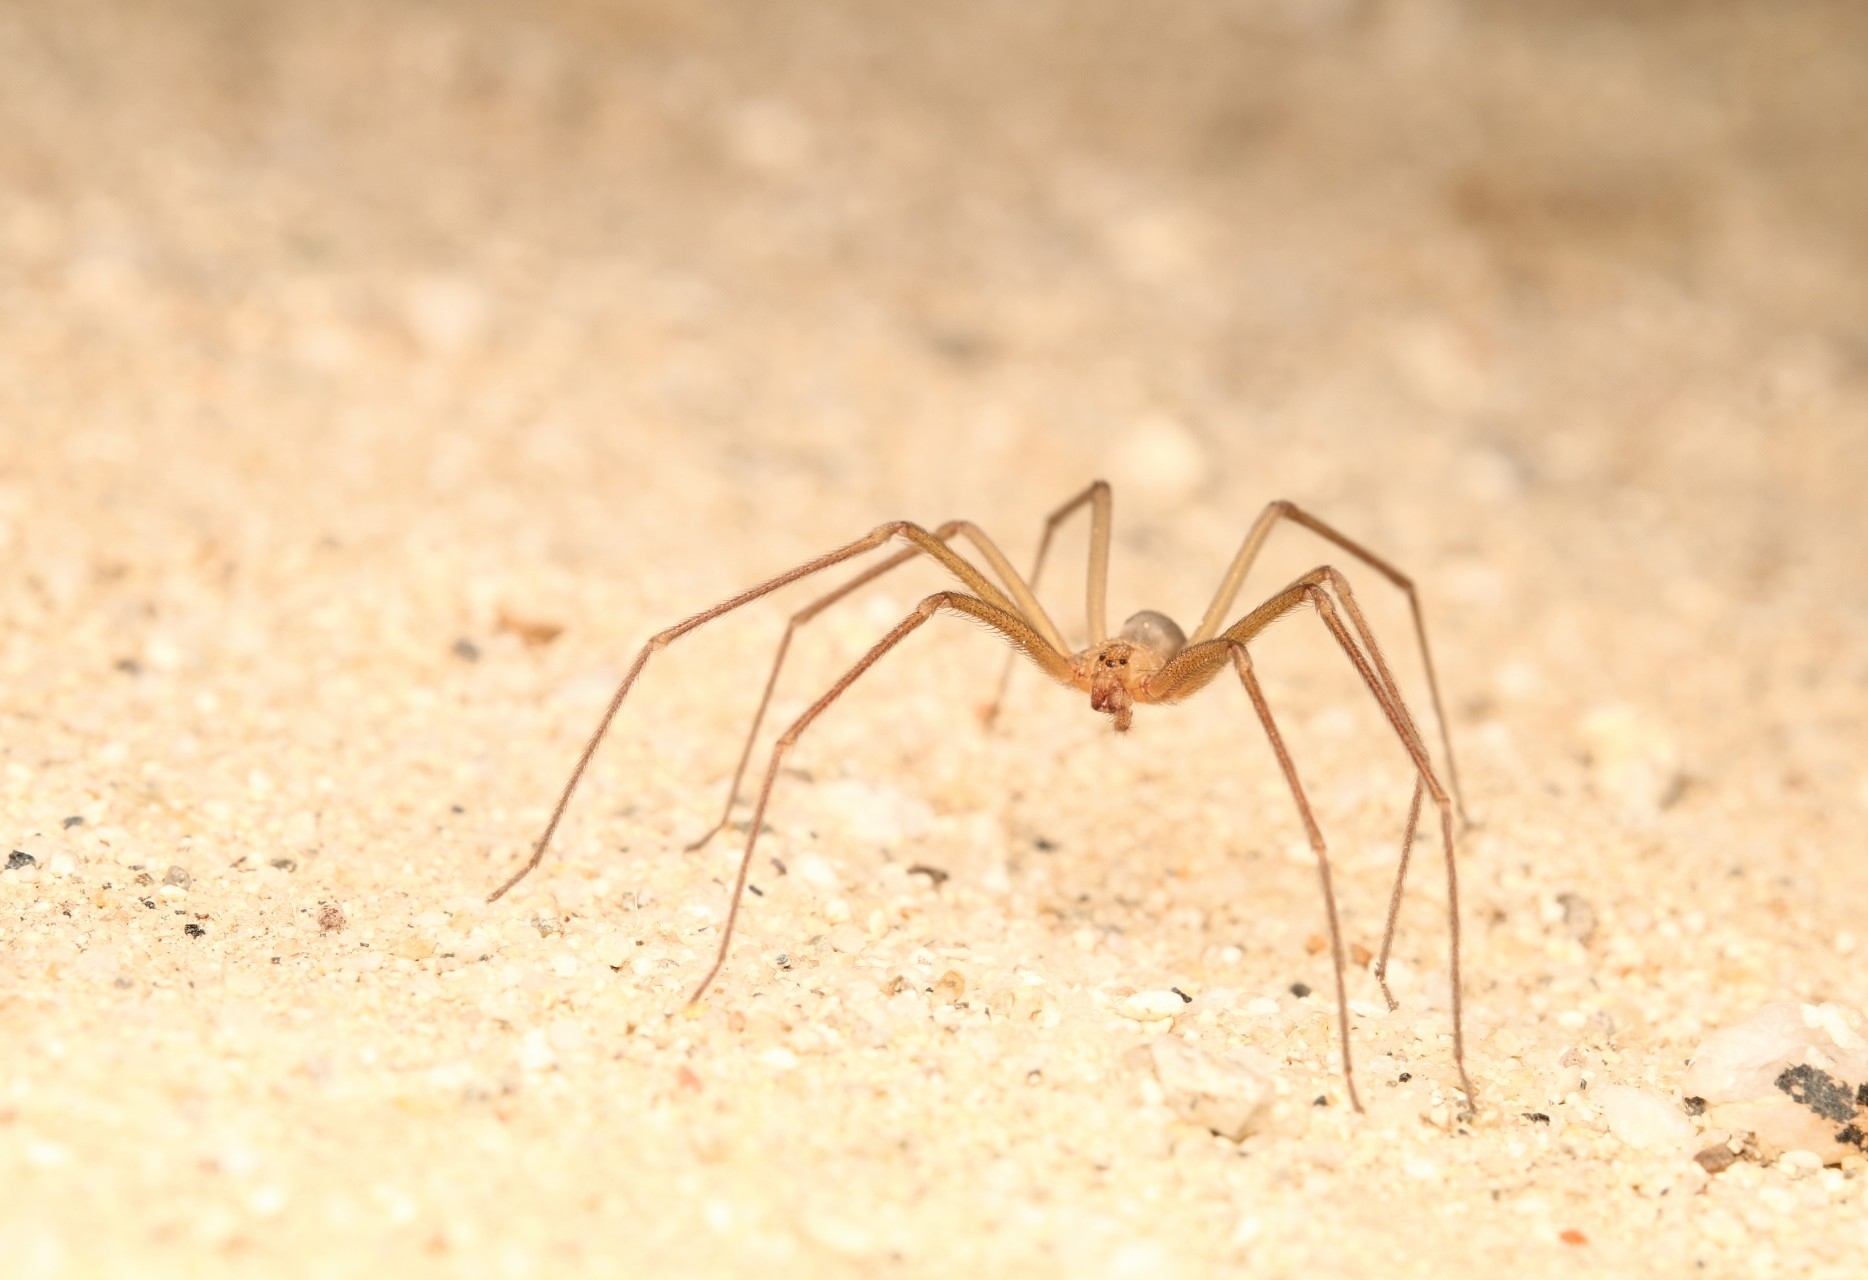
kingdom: Animalia
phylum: Arthropoda
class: Arachnida
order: Araneae
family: Sicariidae
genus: Loxosceles
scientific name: Loxosceles deserta
